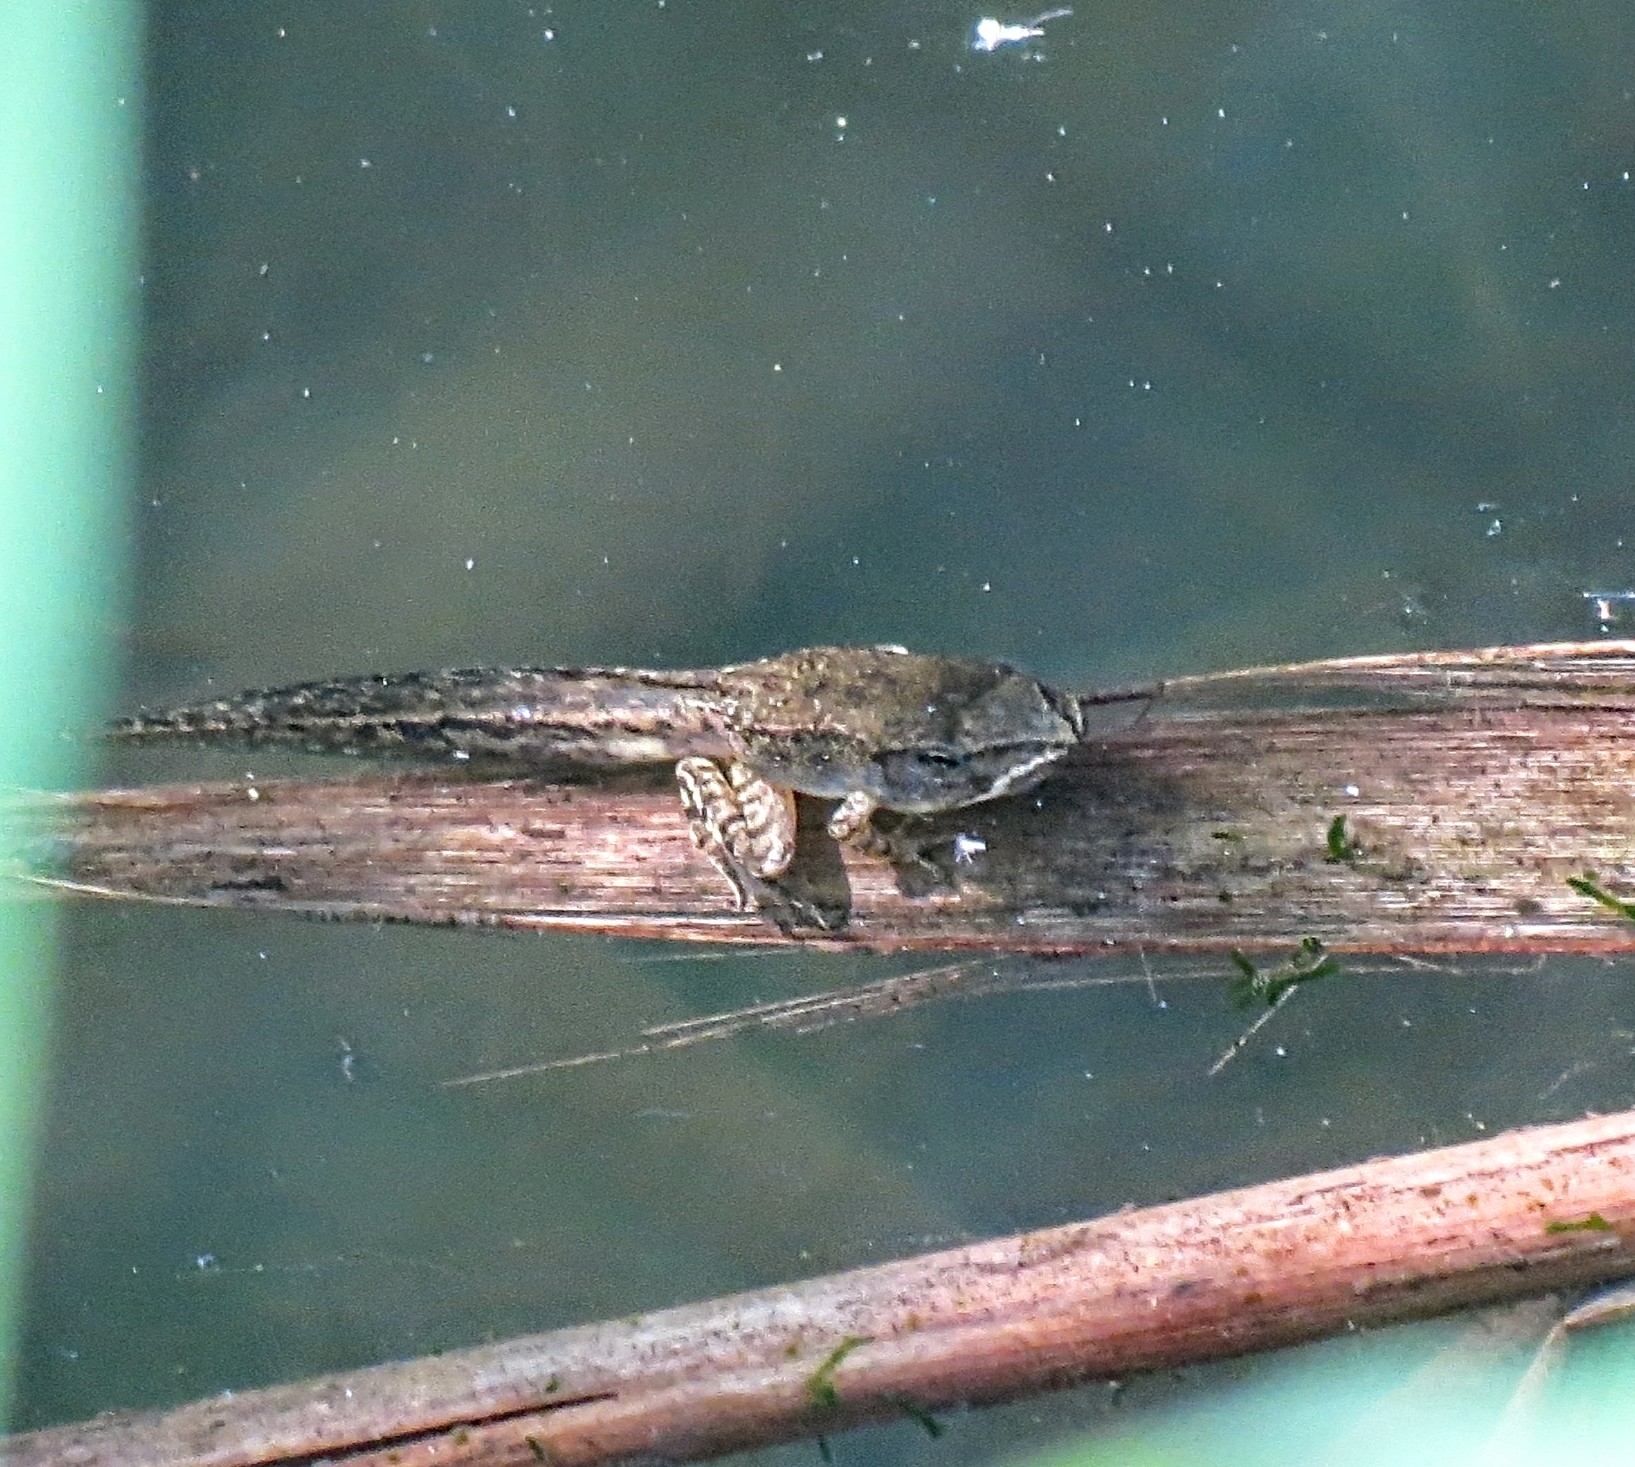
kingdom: Animalia
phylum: Chordata
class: Amphibia
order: Anura
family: Ranidae
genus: Lithobates
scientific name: Lithobates sylvaticus
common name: Wood frog
